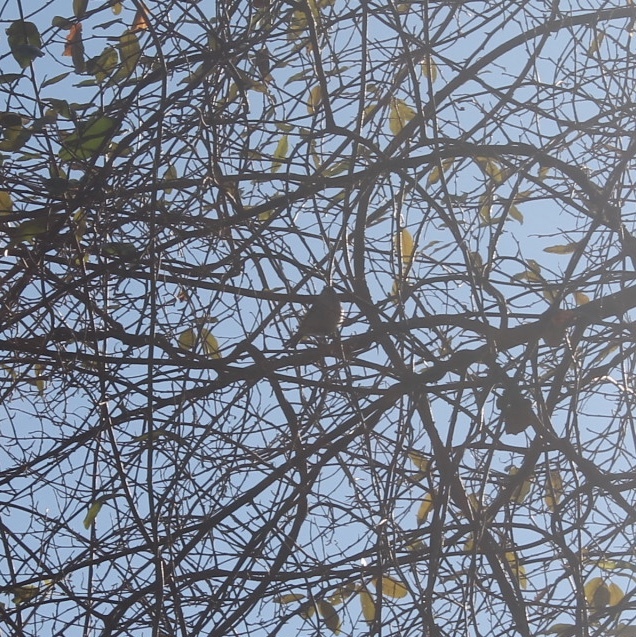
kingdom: Animalia
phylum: Chordata
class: Aves
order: Passeriformes
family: Regulidae
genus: Regulus
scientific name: Regulus satrapa
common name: Golden-crowned kinglet
